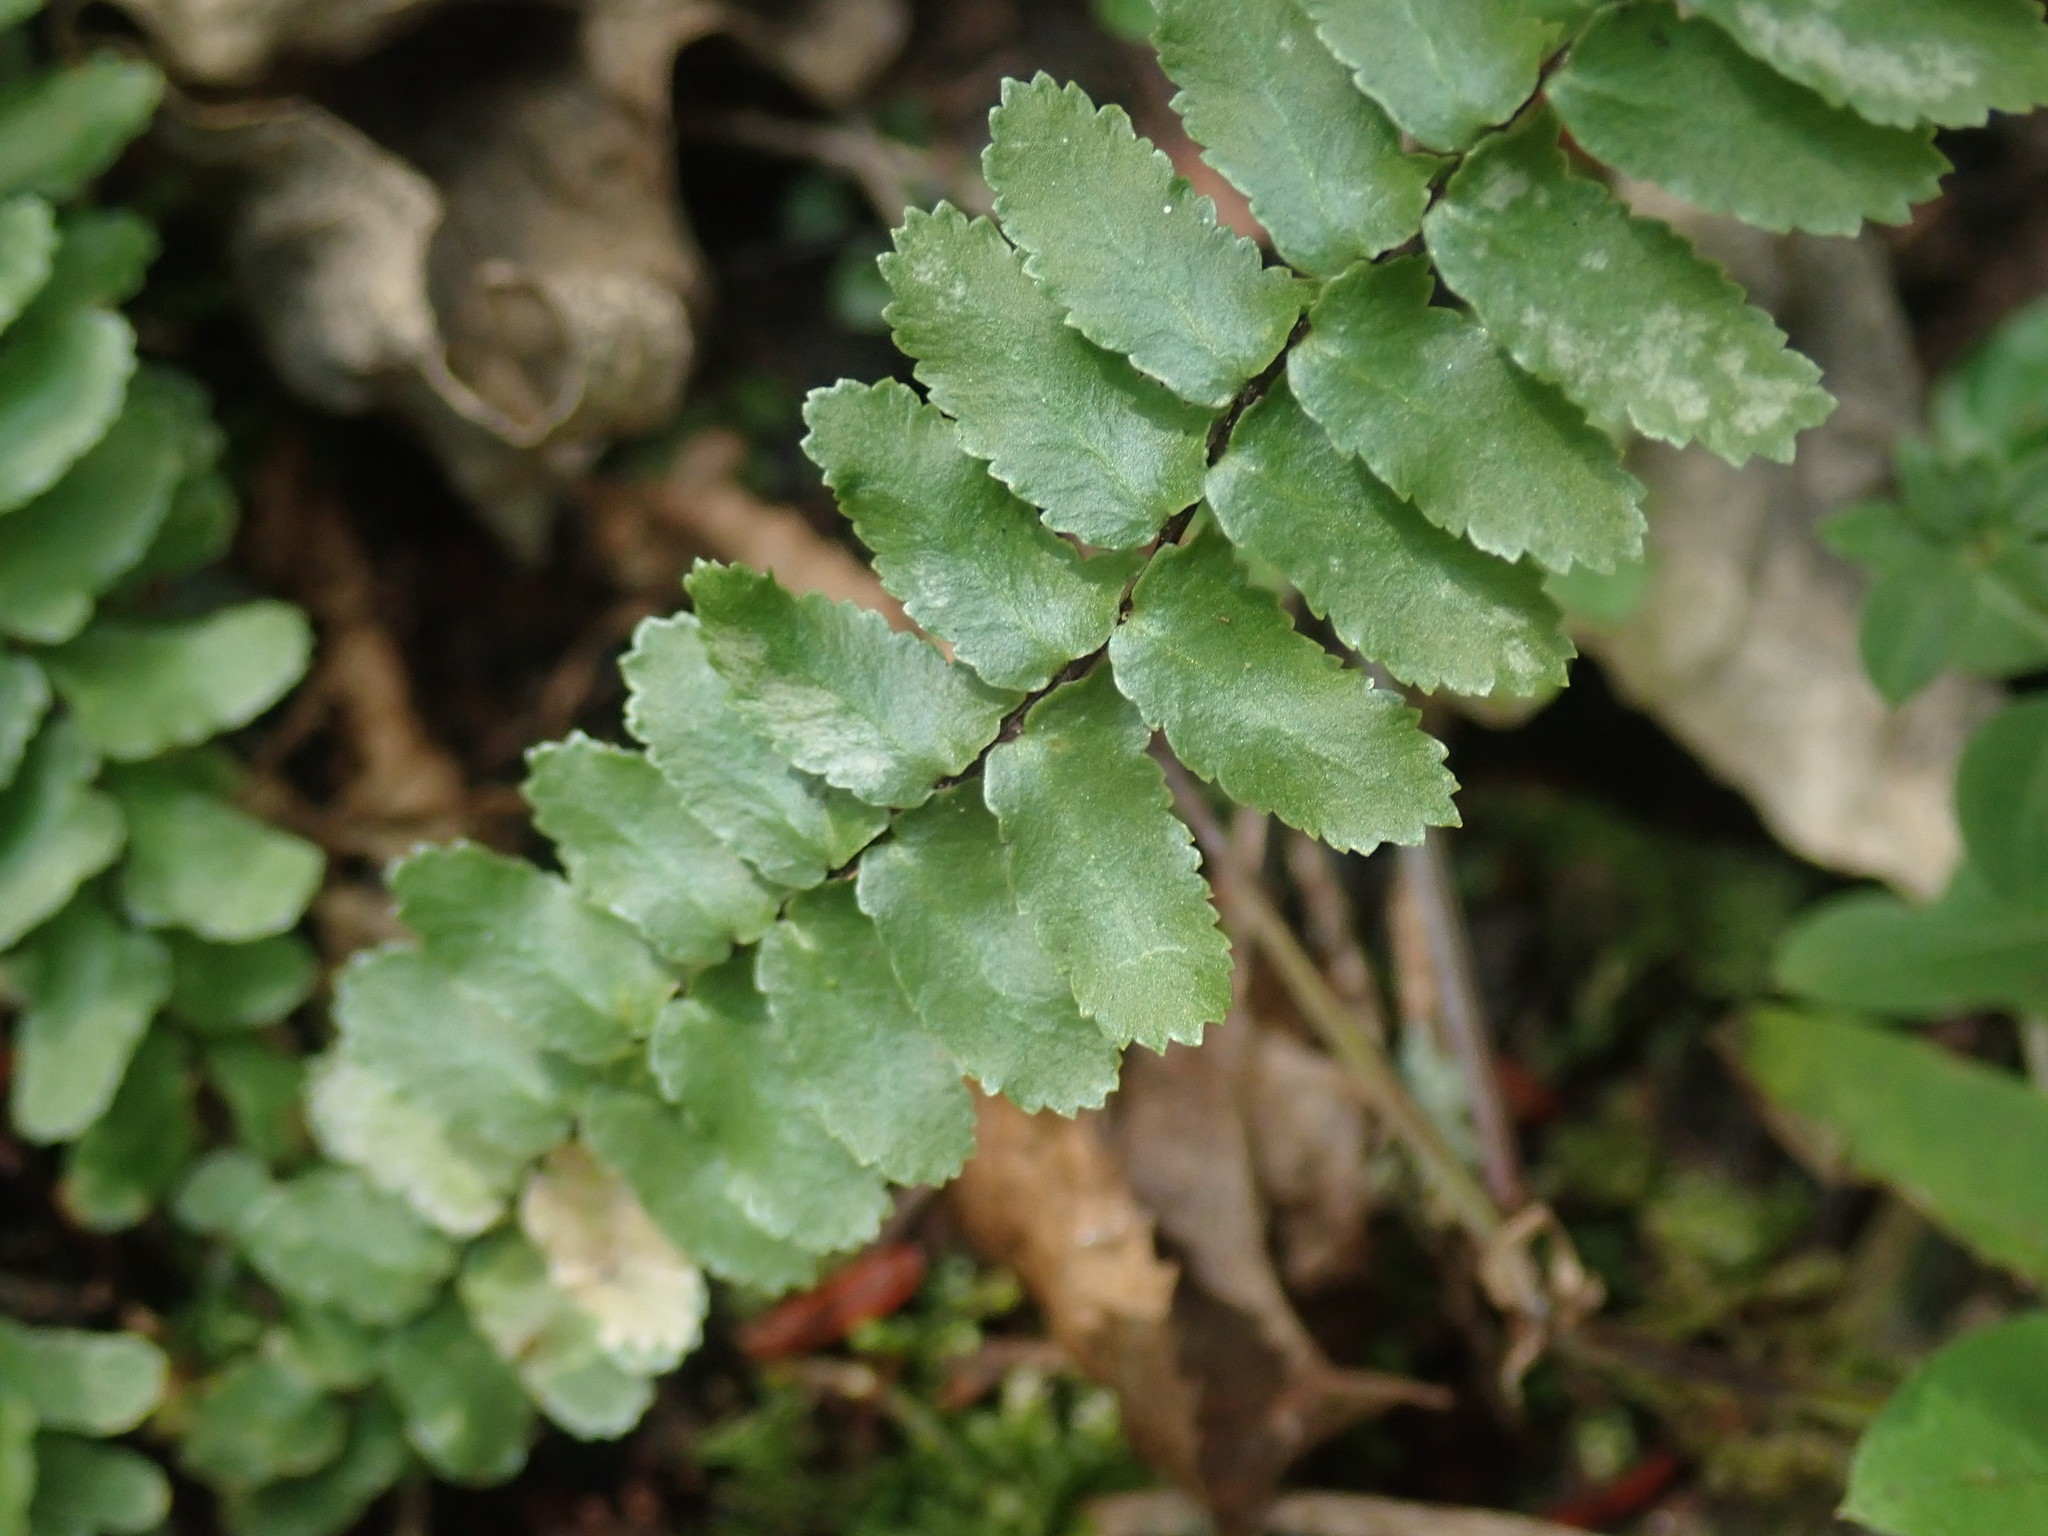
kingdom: Plantae
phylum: Tracheophyta
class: Polypodiopsida
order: Polypodiales
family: Aspleniaceae
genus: Asplenium
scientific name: Asplenium platyneuron
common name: Ebony spleenwort
